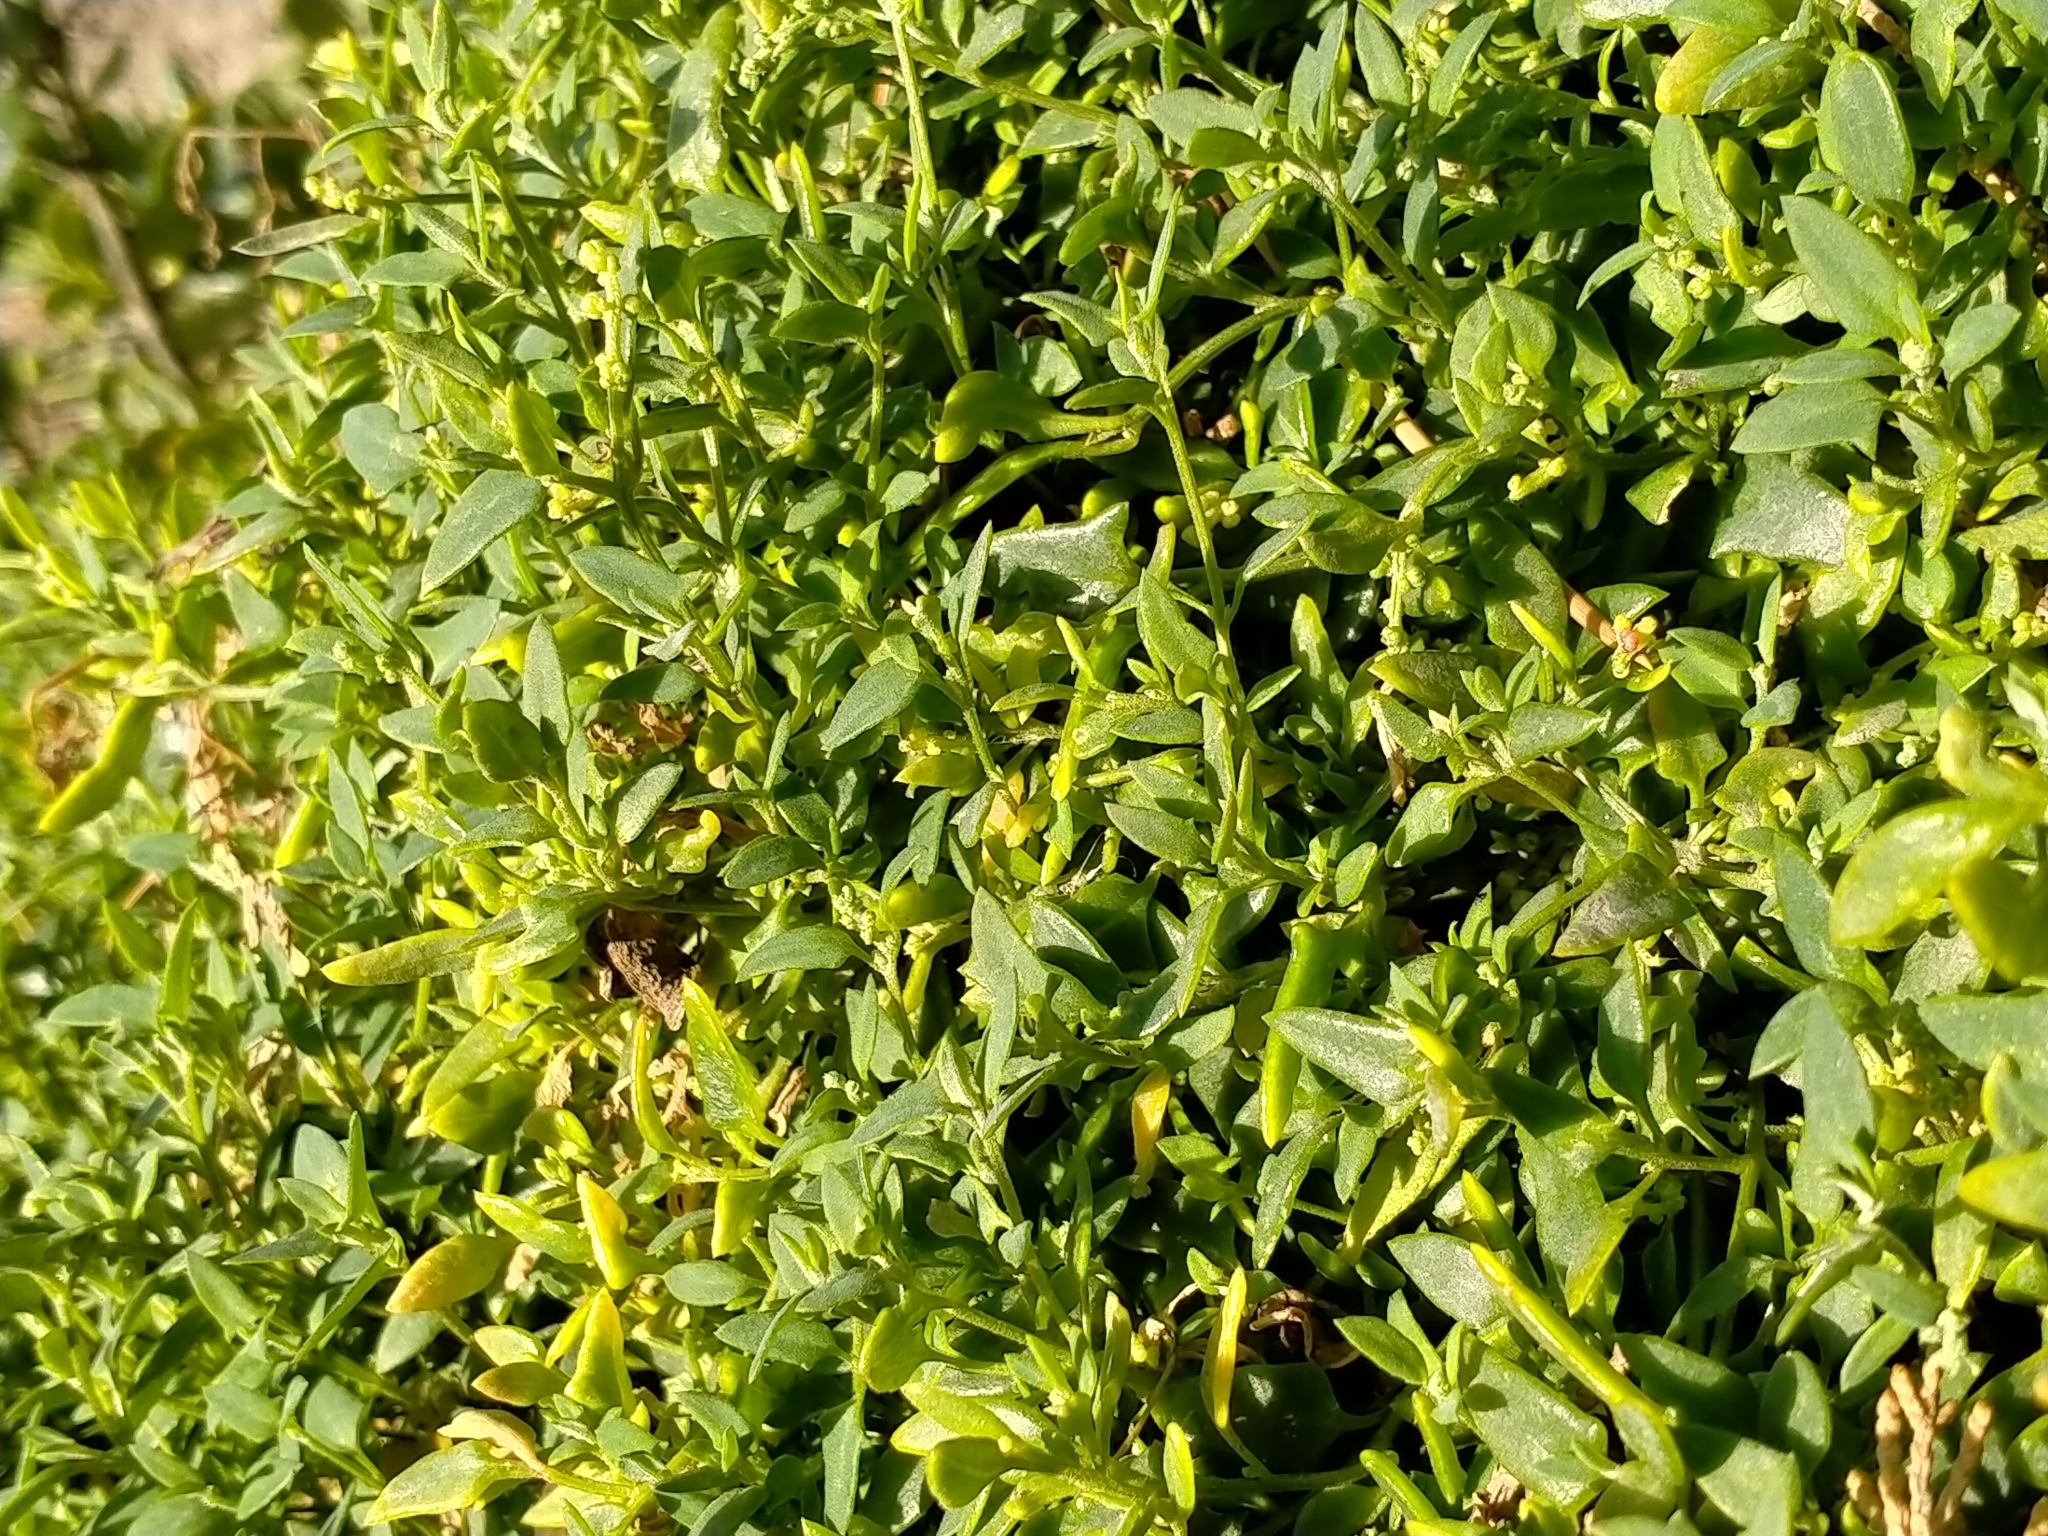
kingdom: Plantae
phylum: Tracheophyta
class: Magnoliopsida
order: Caryophyllales
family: Amaranthaceae
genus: Chenopodium
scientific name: Chenopodium nutans
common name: Climbing-saltbush
